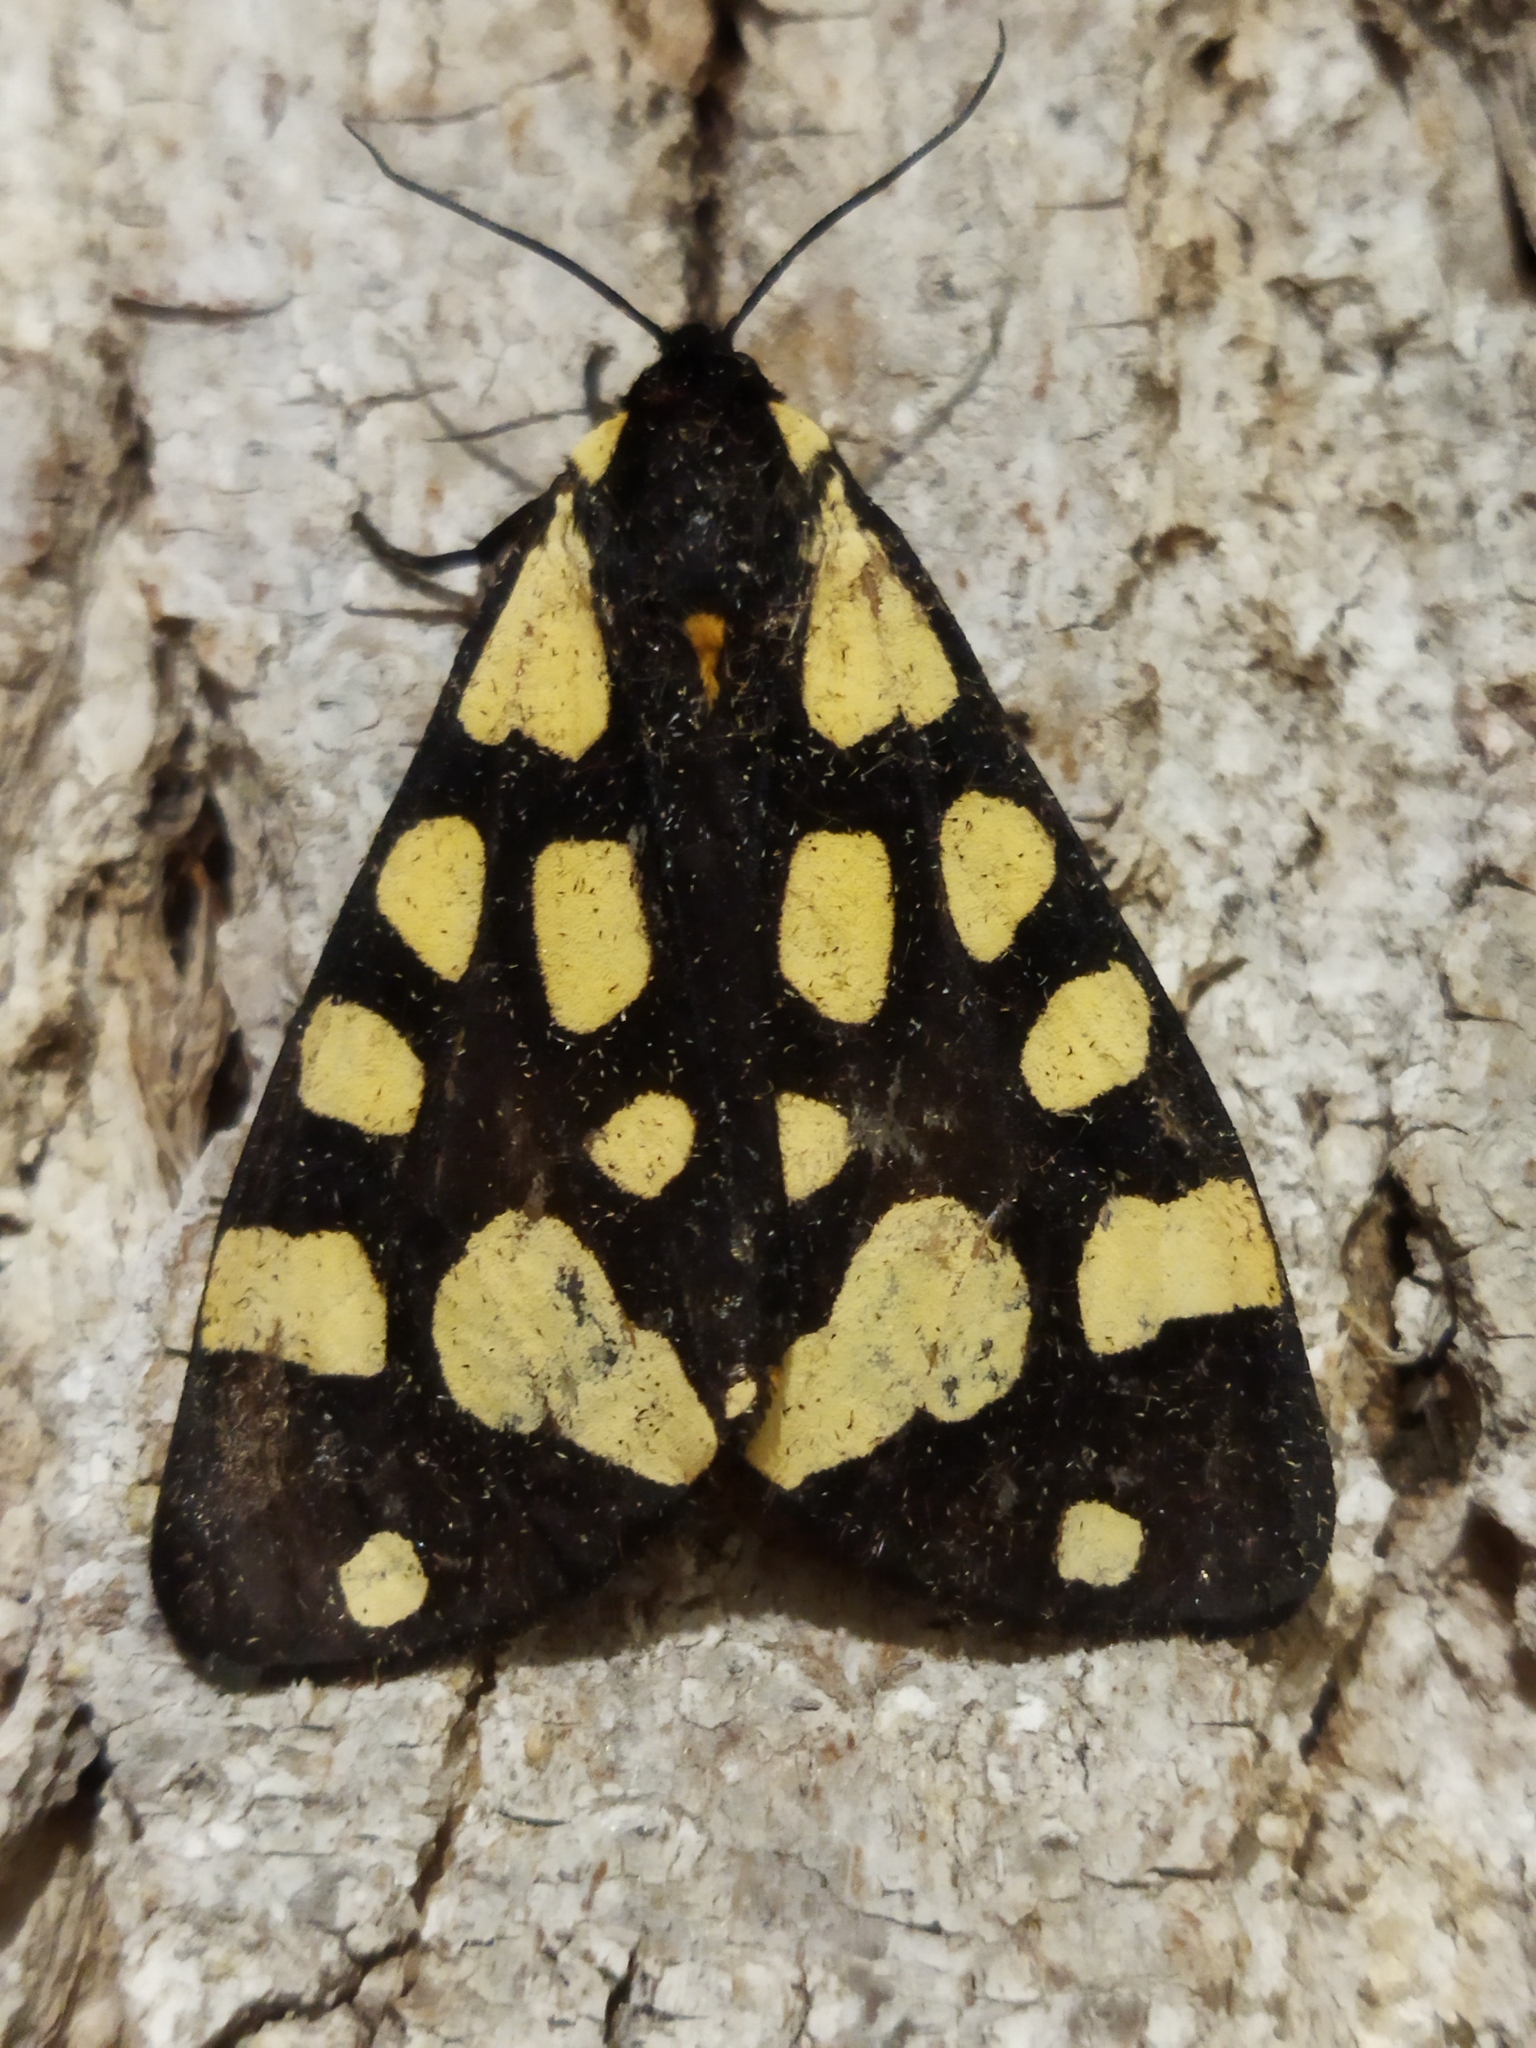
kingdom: Animalia
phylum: Arthropoda
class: Insecta
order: Lepidoptera
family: Erebidae
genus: Epicallia
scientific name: Epicallia villica
